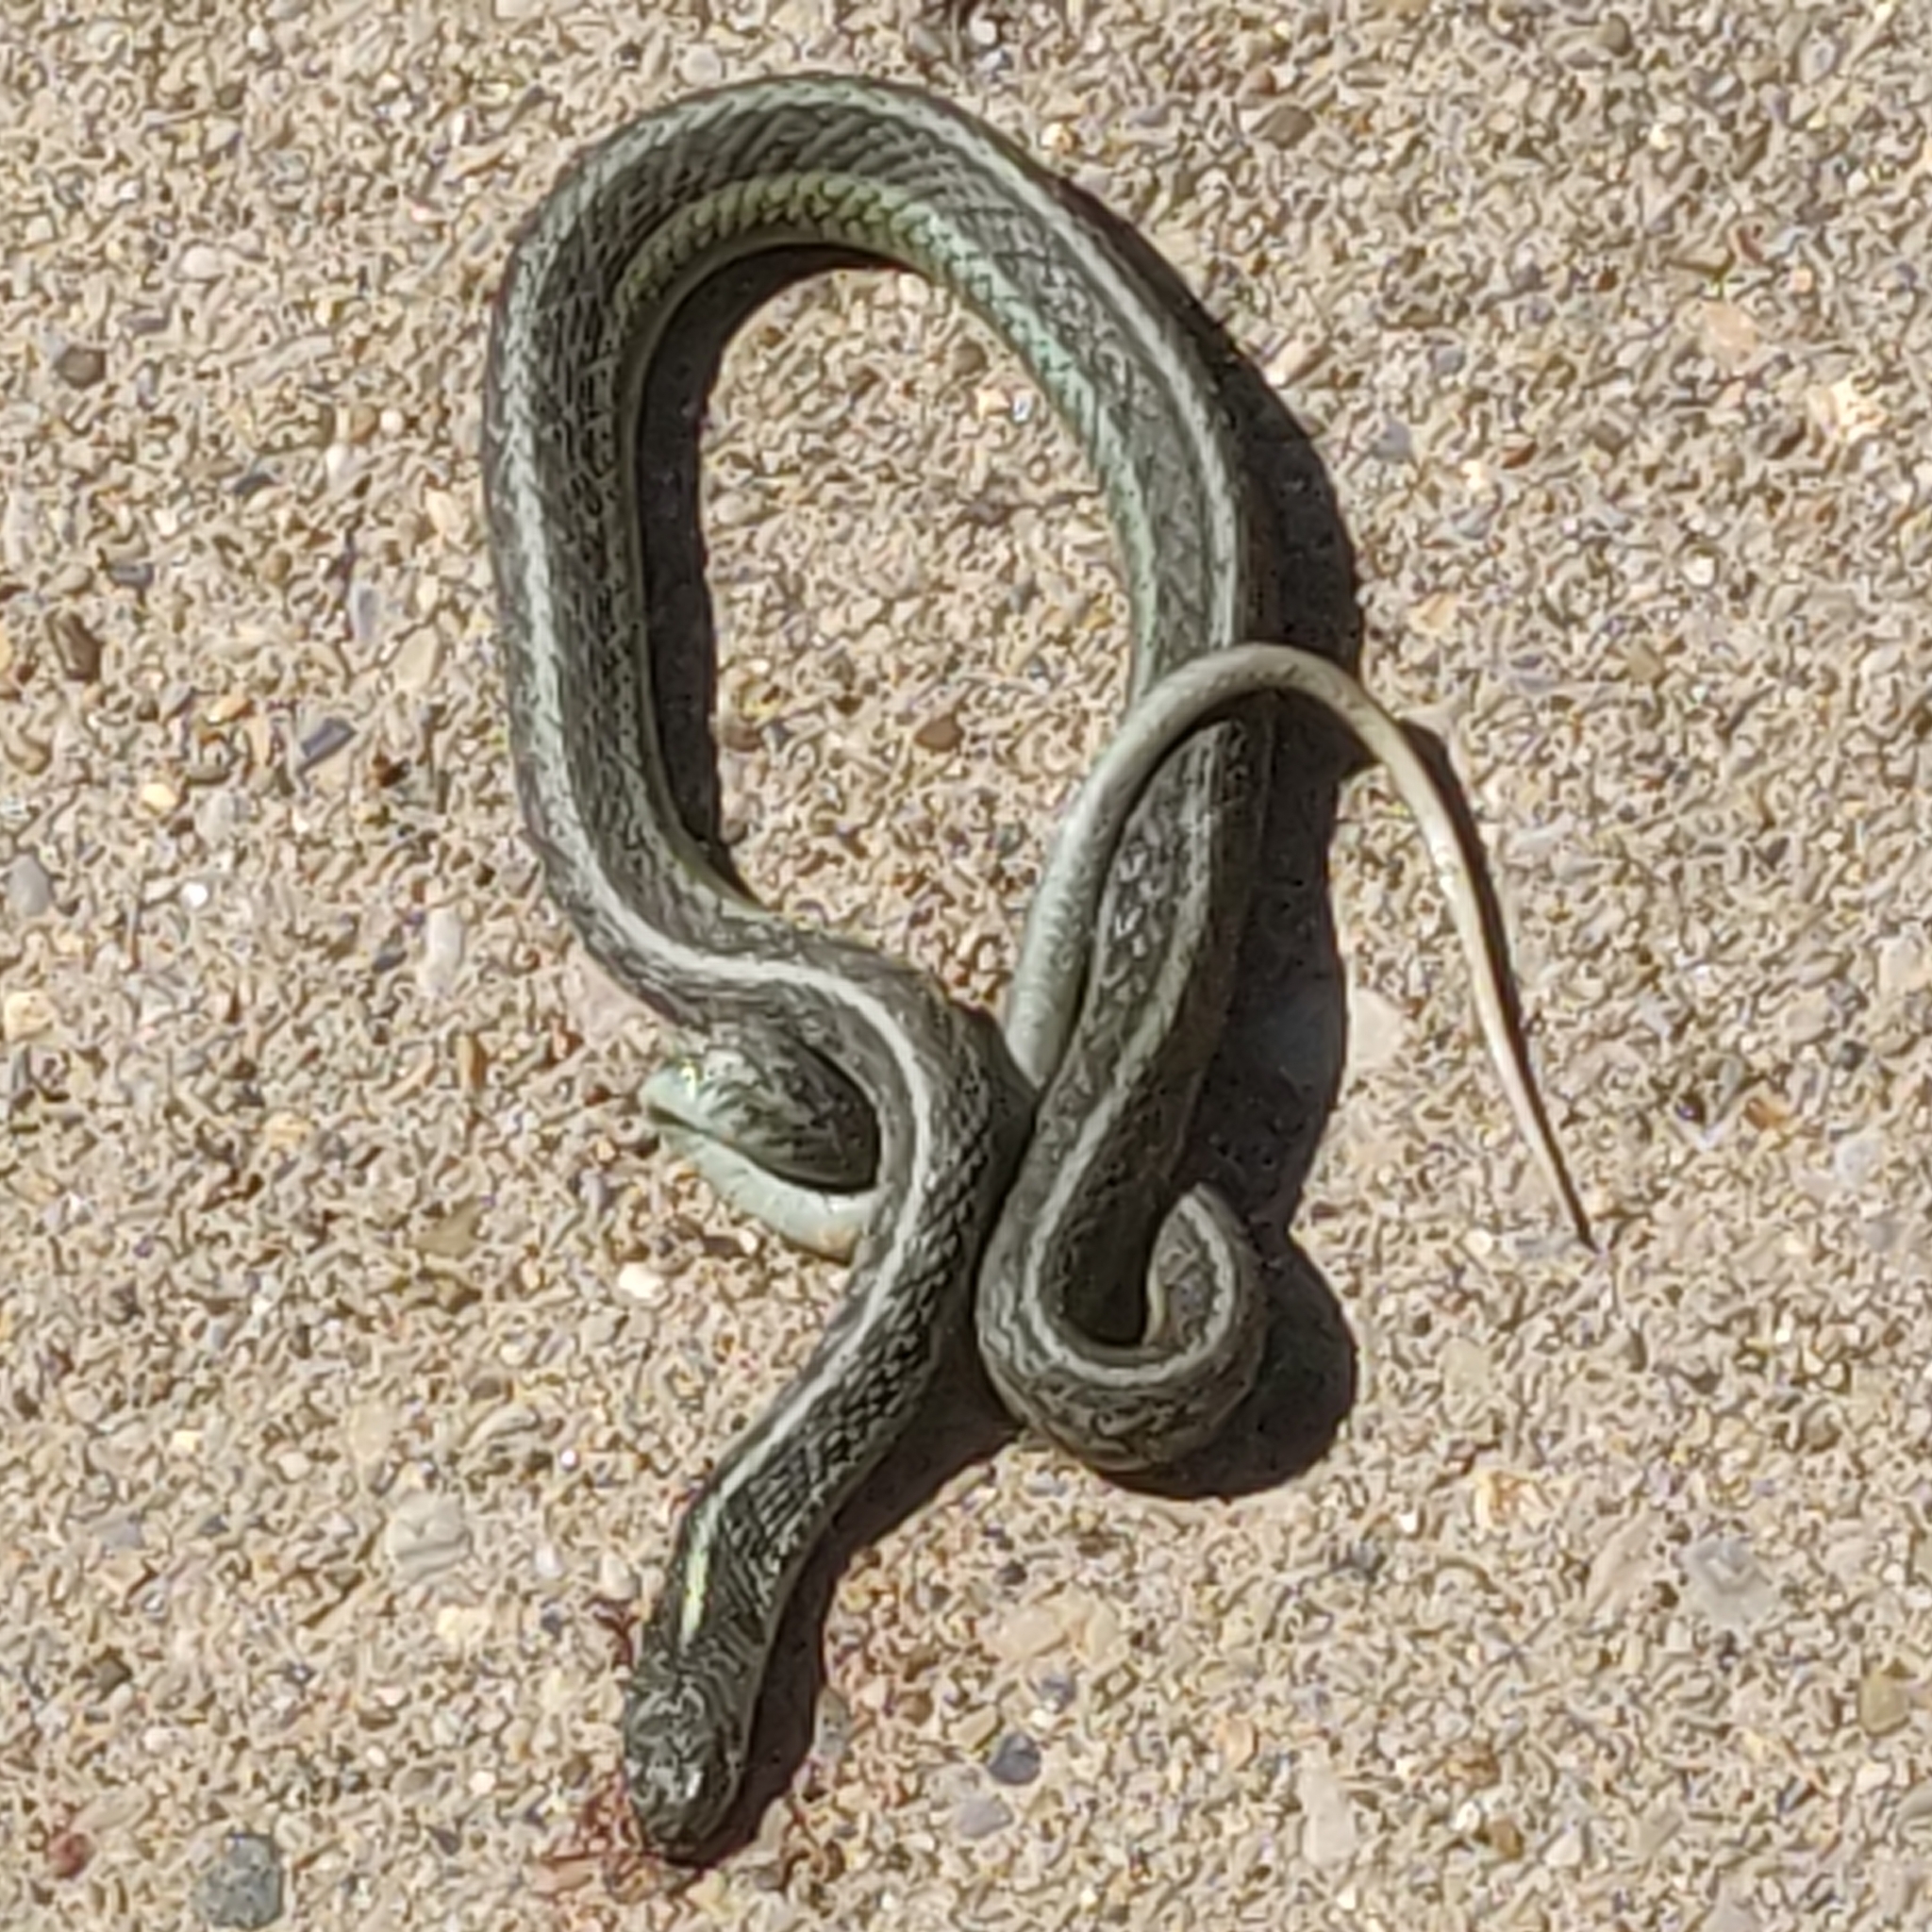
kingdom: Animalia
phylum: Chordata
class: Squamata
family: Colubridae
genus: Thamnophis
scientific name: Thamnophis sirtalis
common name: Common garter snake
